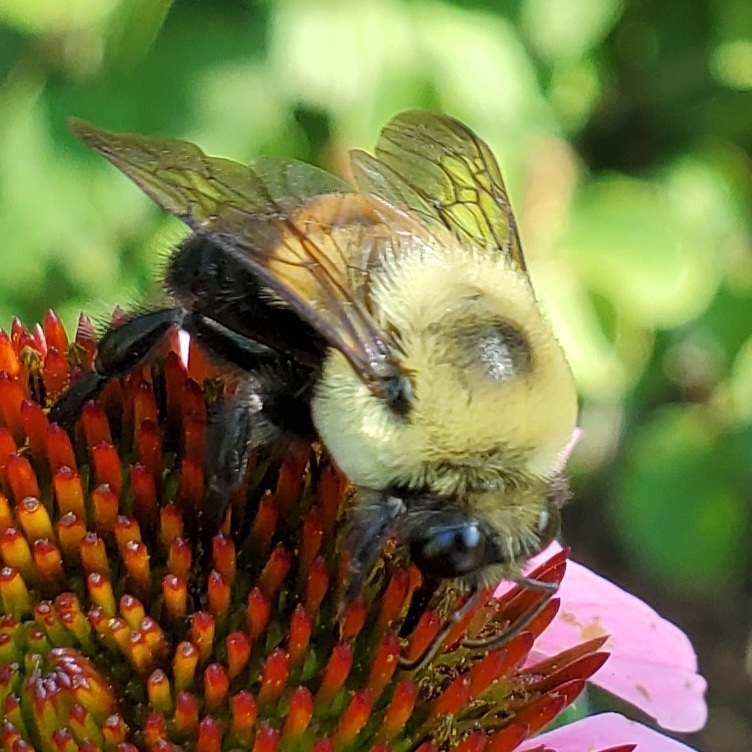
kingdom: Animalia
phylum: Arthropoda
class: Insecta
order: Hymenoptera
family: Apidae
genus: Bombus
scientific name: Bombus griseocollis
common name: Brown-belted bumble bee
